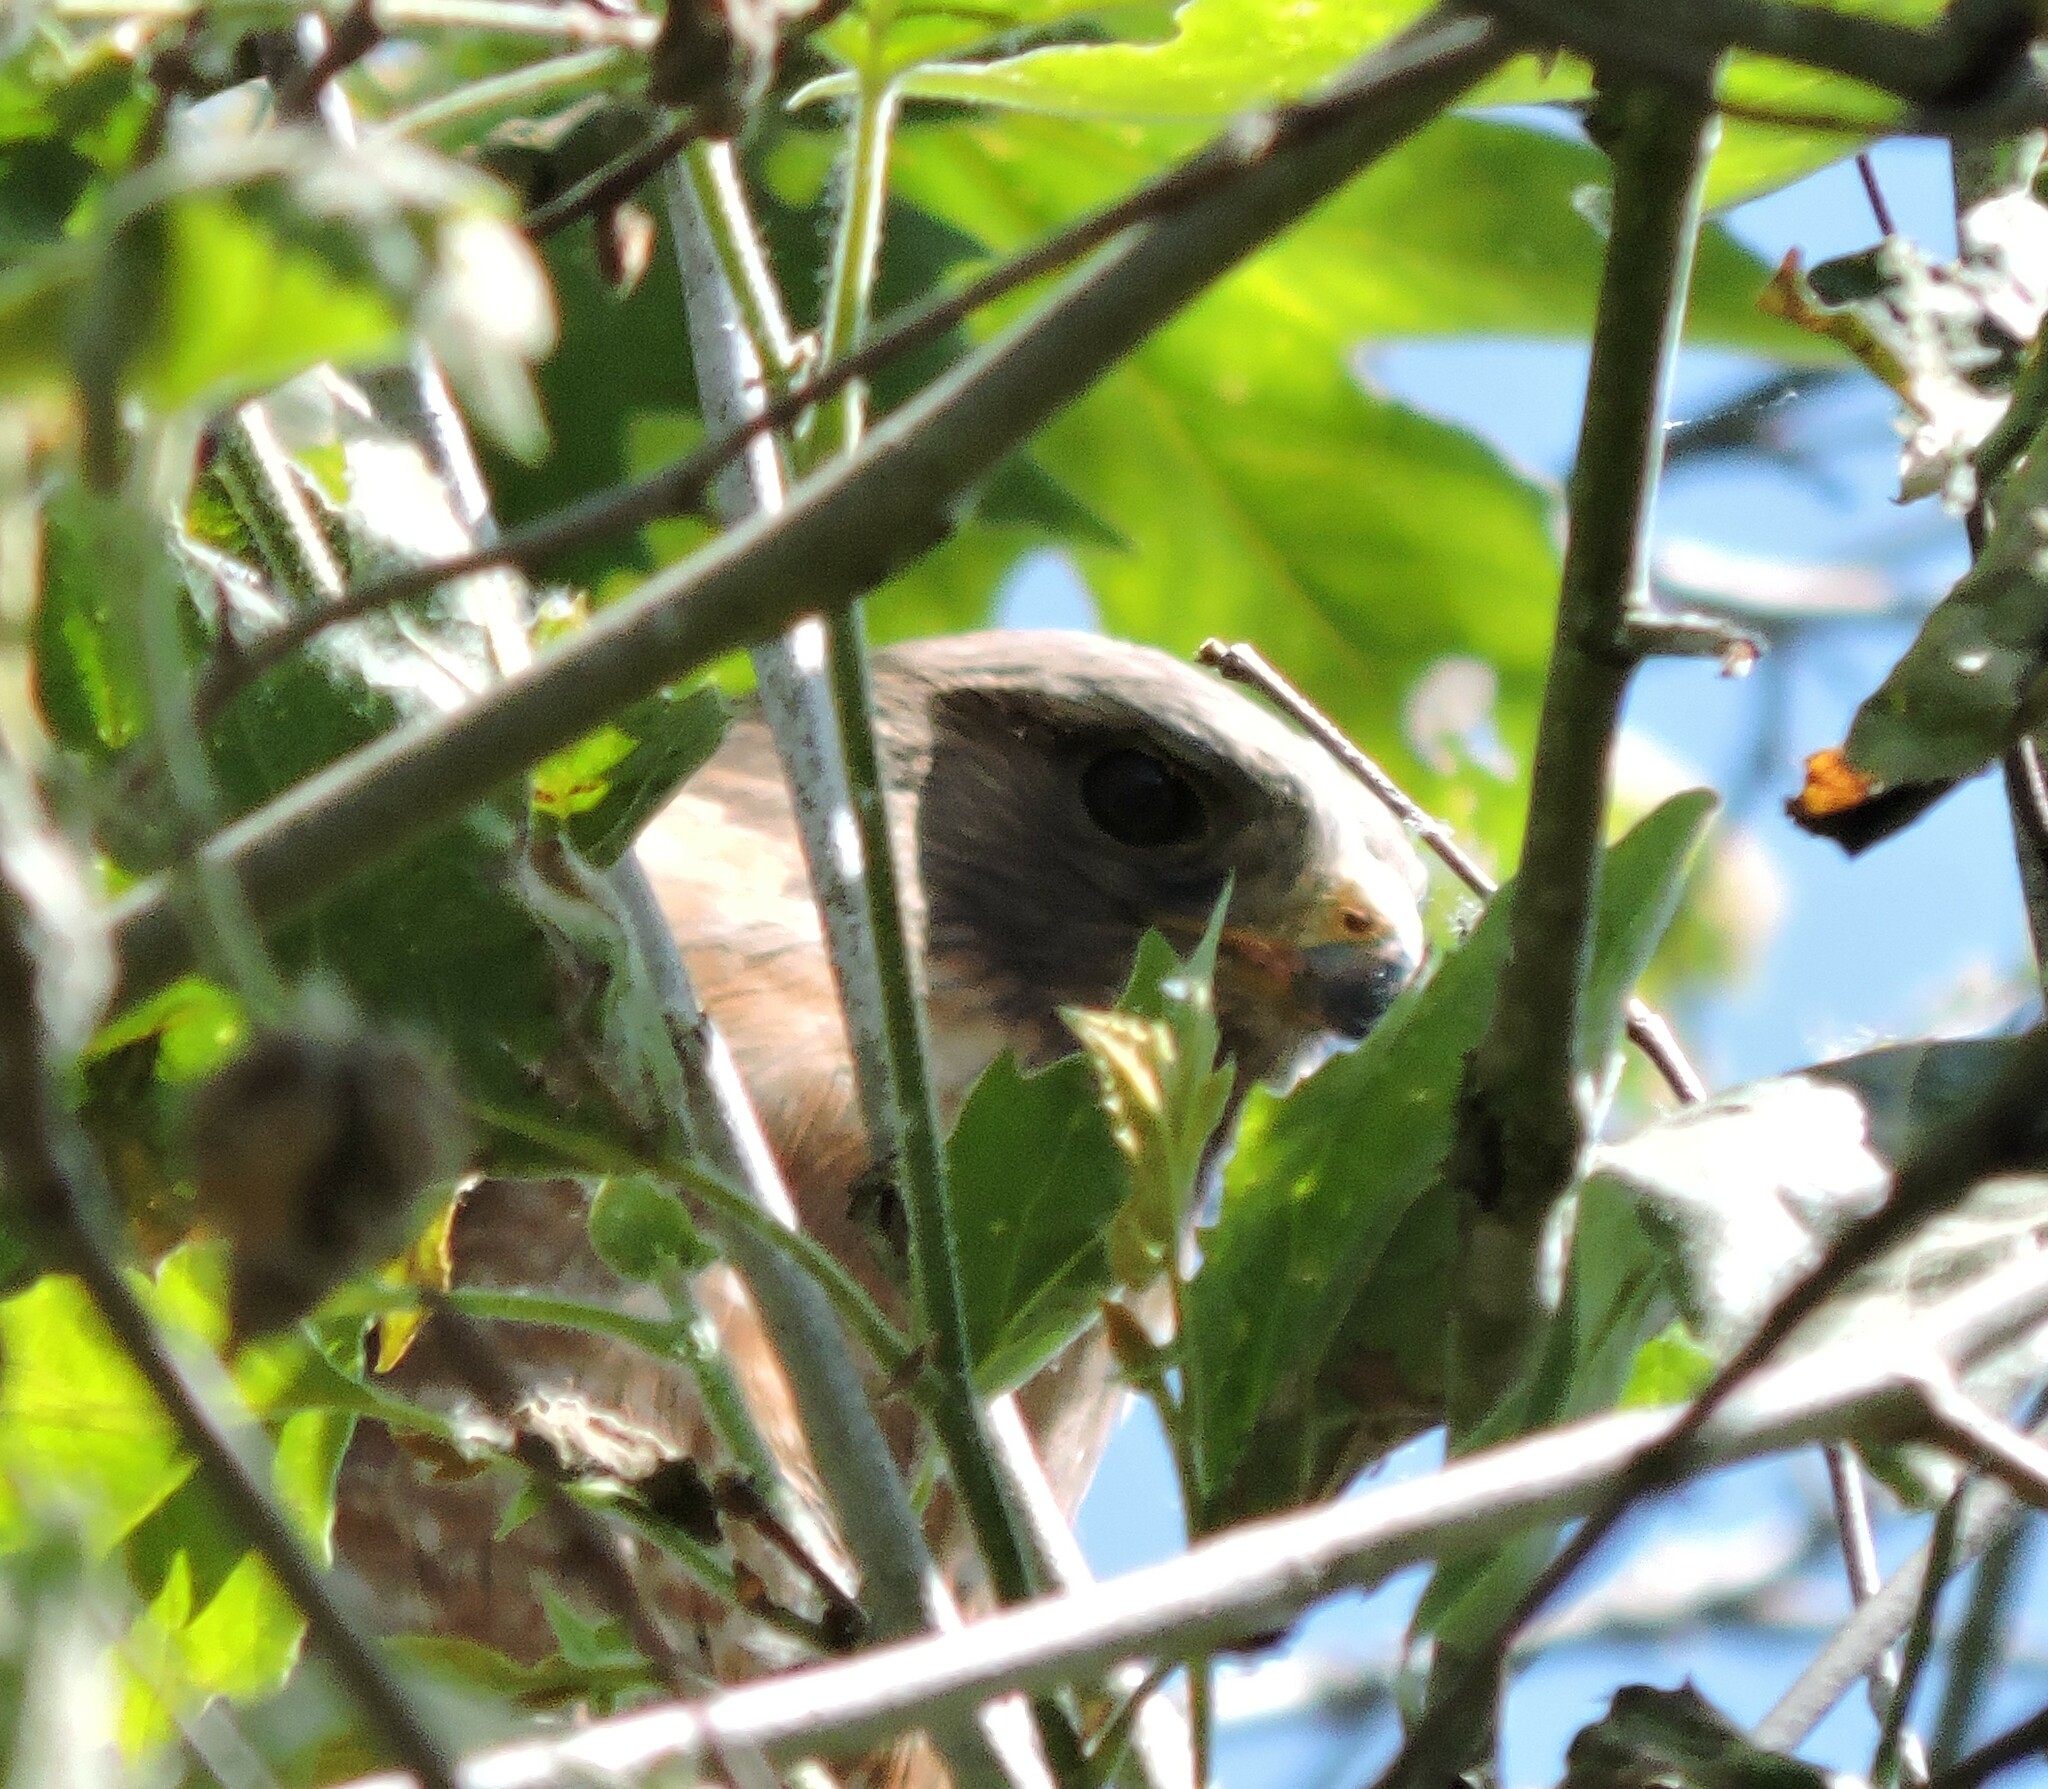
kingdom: Animalia
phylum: Chordata
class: Aves
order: Accipitriformes
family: Accipitridae
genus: Buteo
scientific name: Buteo lineatus
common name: Red-shouldered hawk
